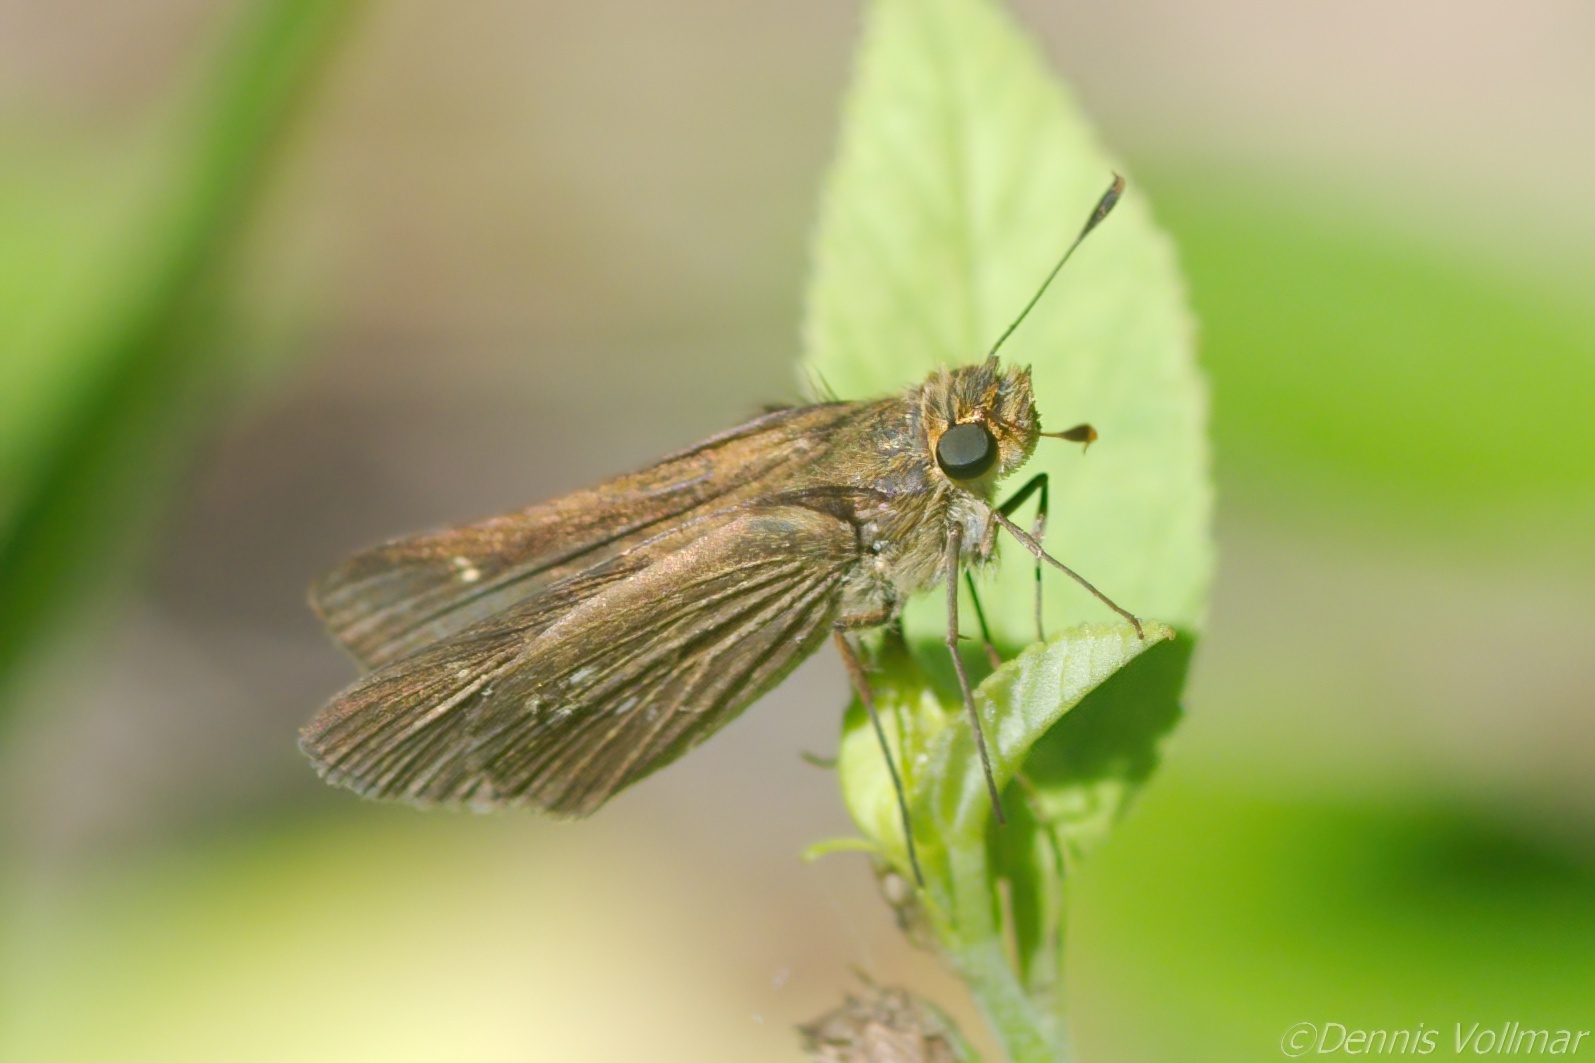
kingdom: Animalia
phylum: Arthropoda
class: Insecta
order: Lepidoptera
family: Hesperiidae
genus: Panoquina
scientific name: Panoquina panoquinoides
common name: Beach skipper
